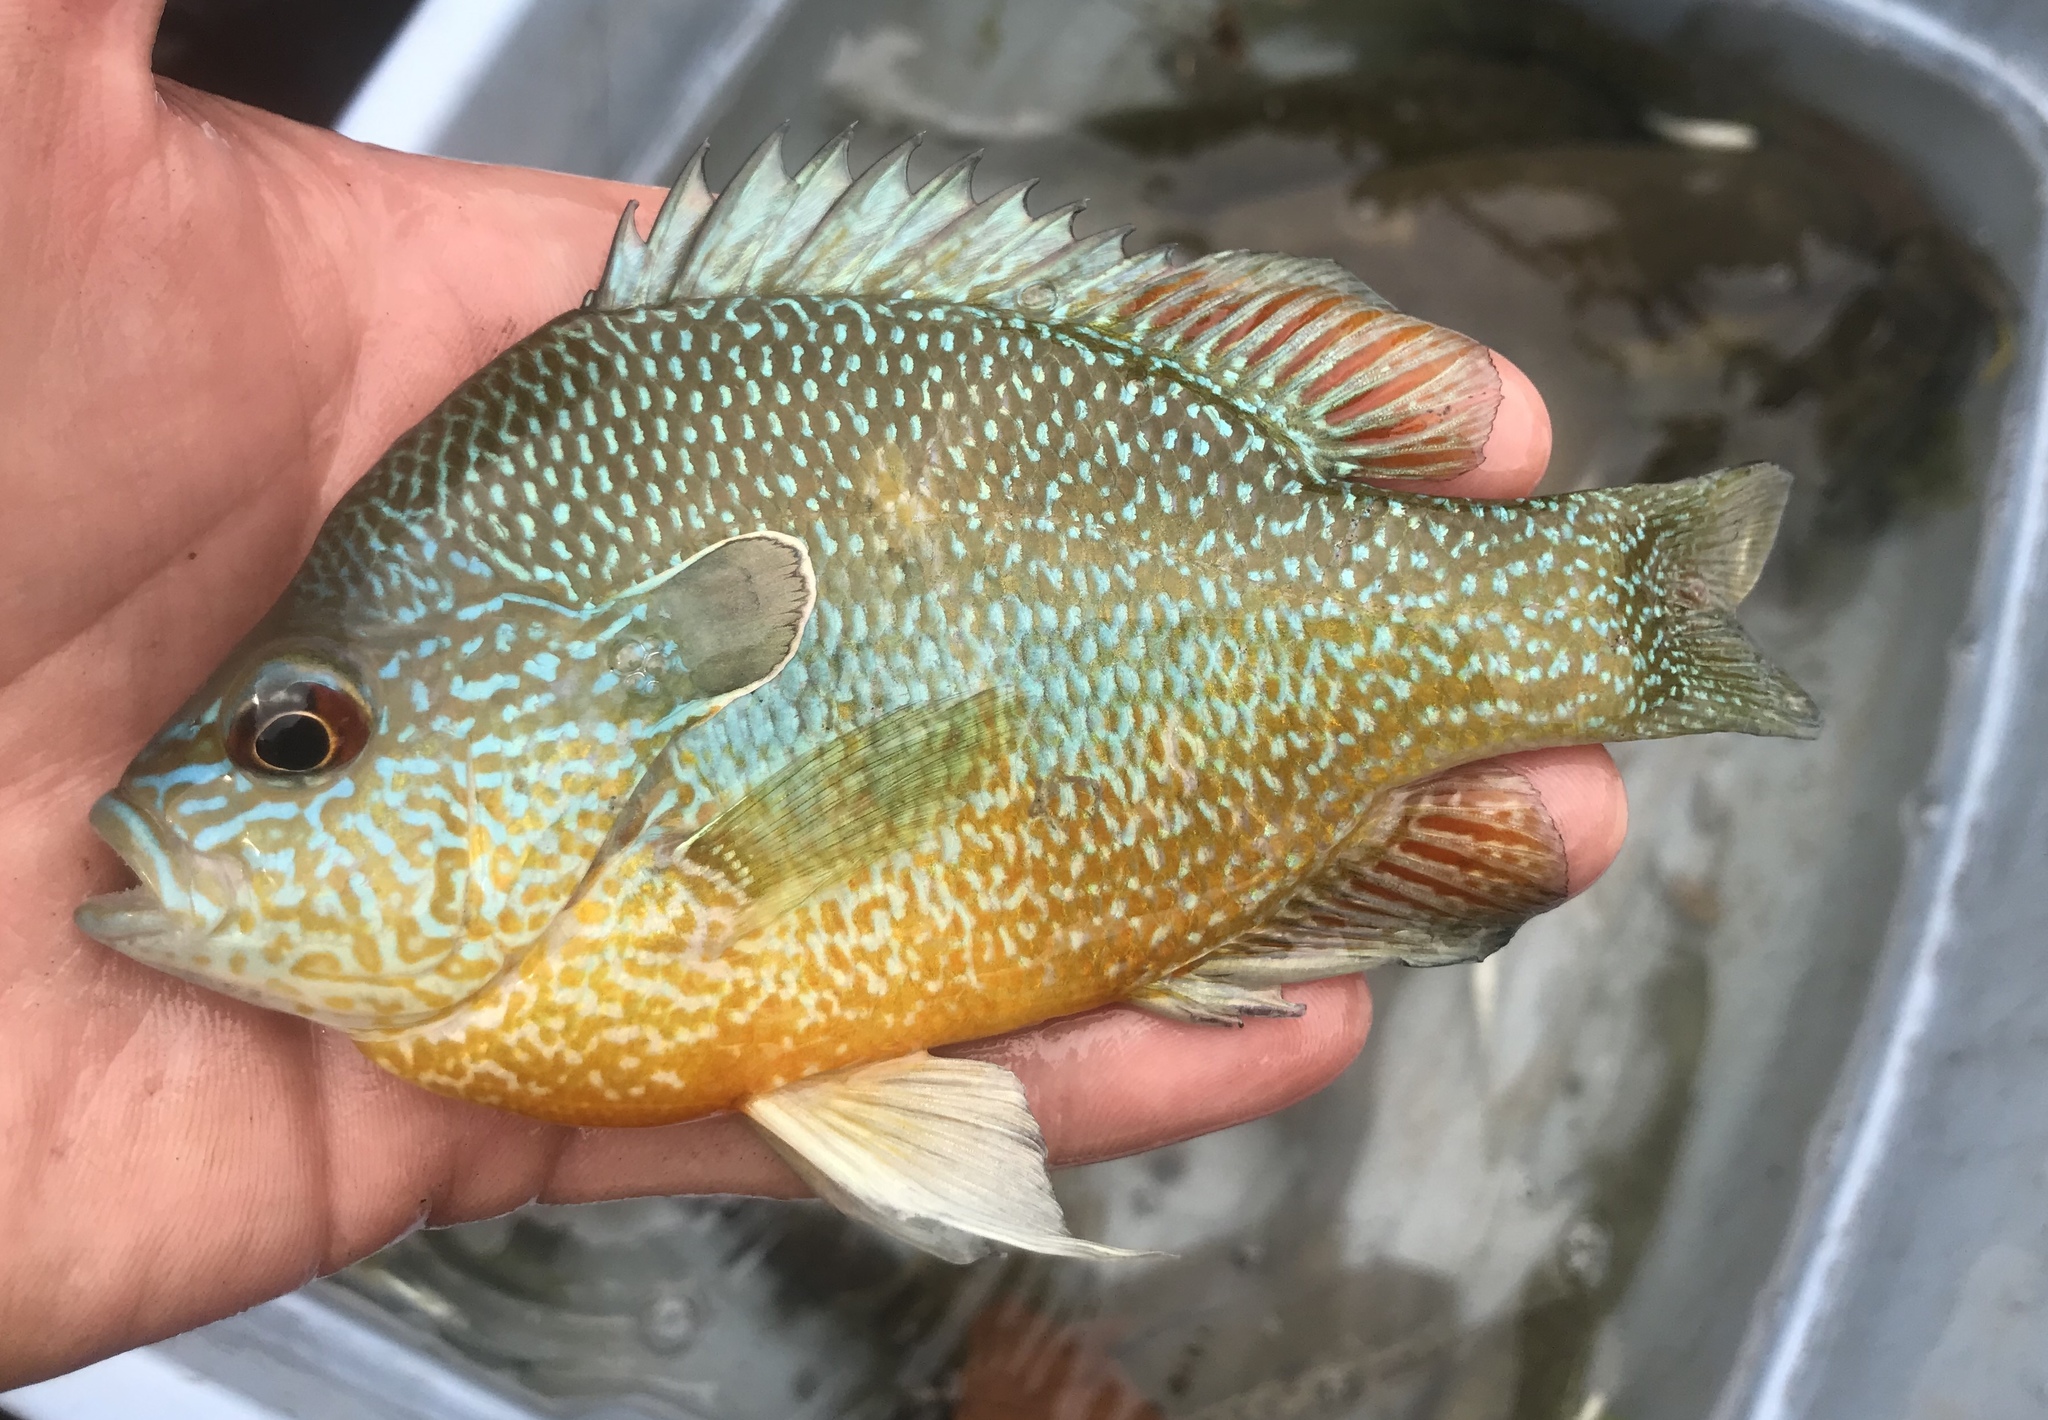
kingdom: Animalia
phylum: Chordata
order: Perciformes
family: Centrarchidae
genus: Lepomis
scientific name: Lepomis megalotis
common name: Longear sunfish
